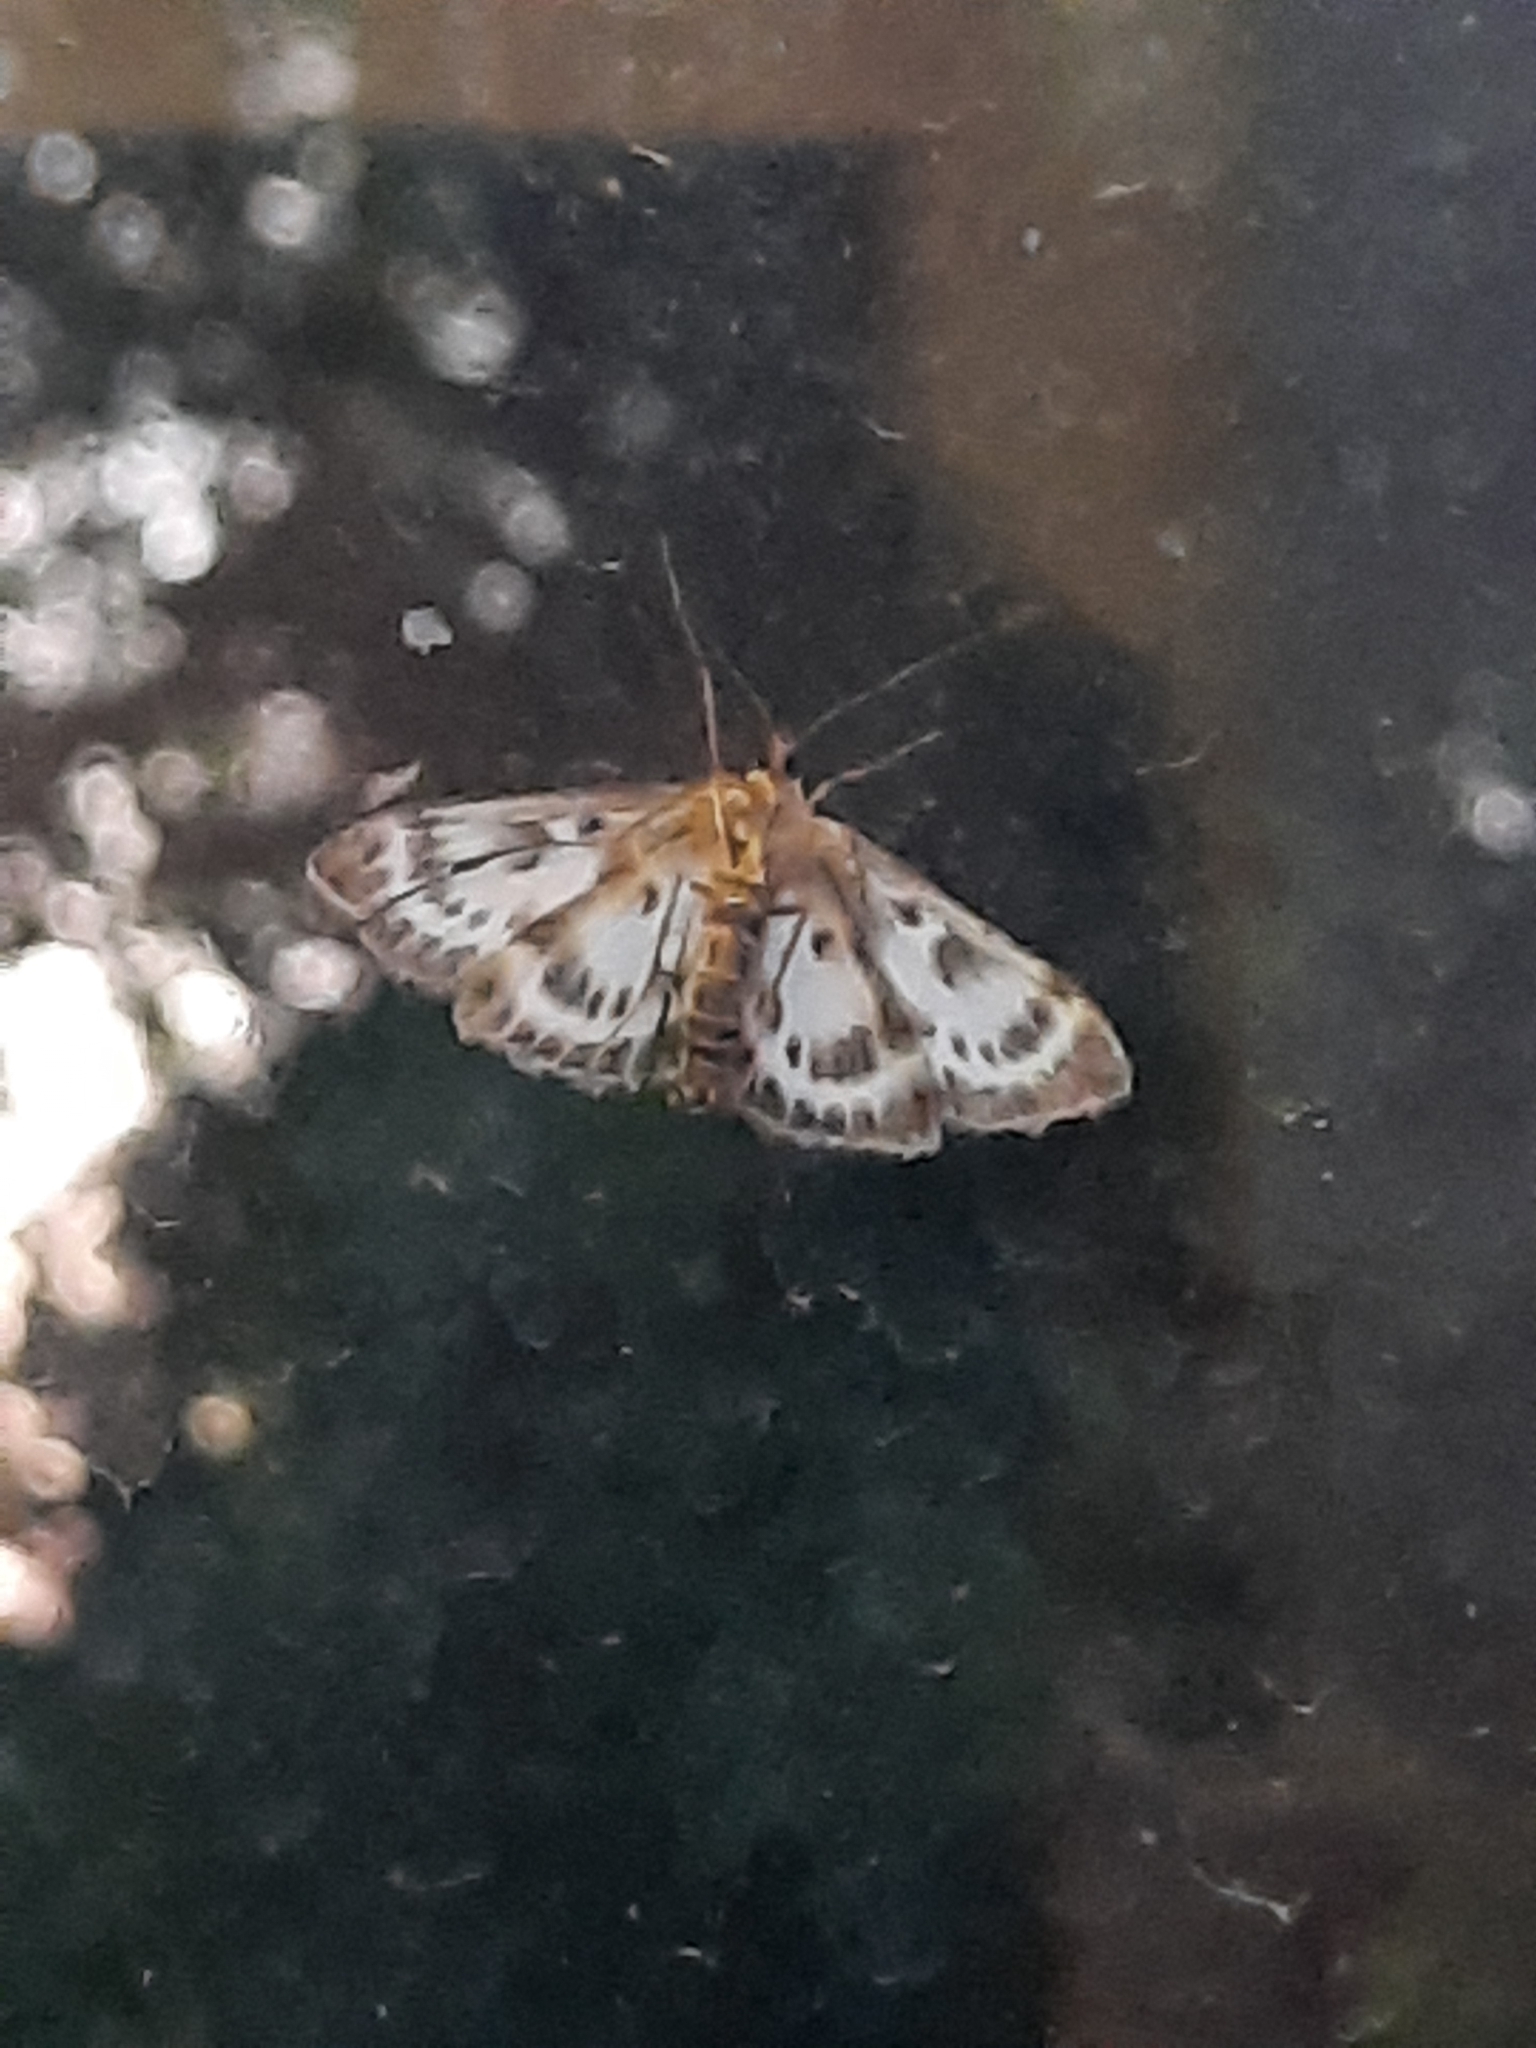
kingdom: Animalia
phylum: Arthropoda
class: Insecta
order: Lepidoptera
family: Crambidae
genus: Anania
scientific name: Anania hortulata
